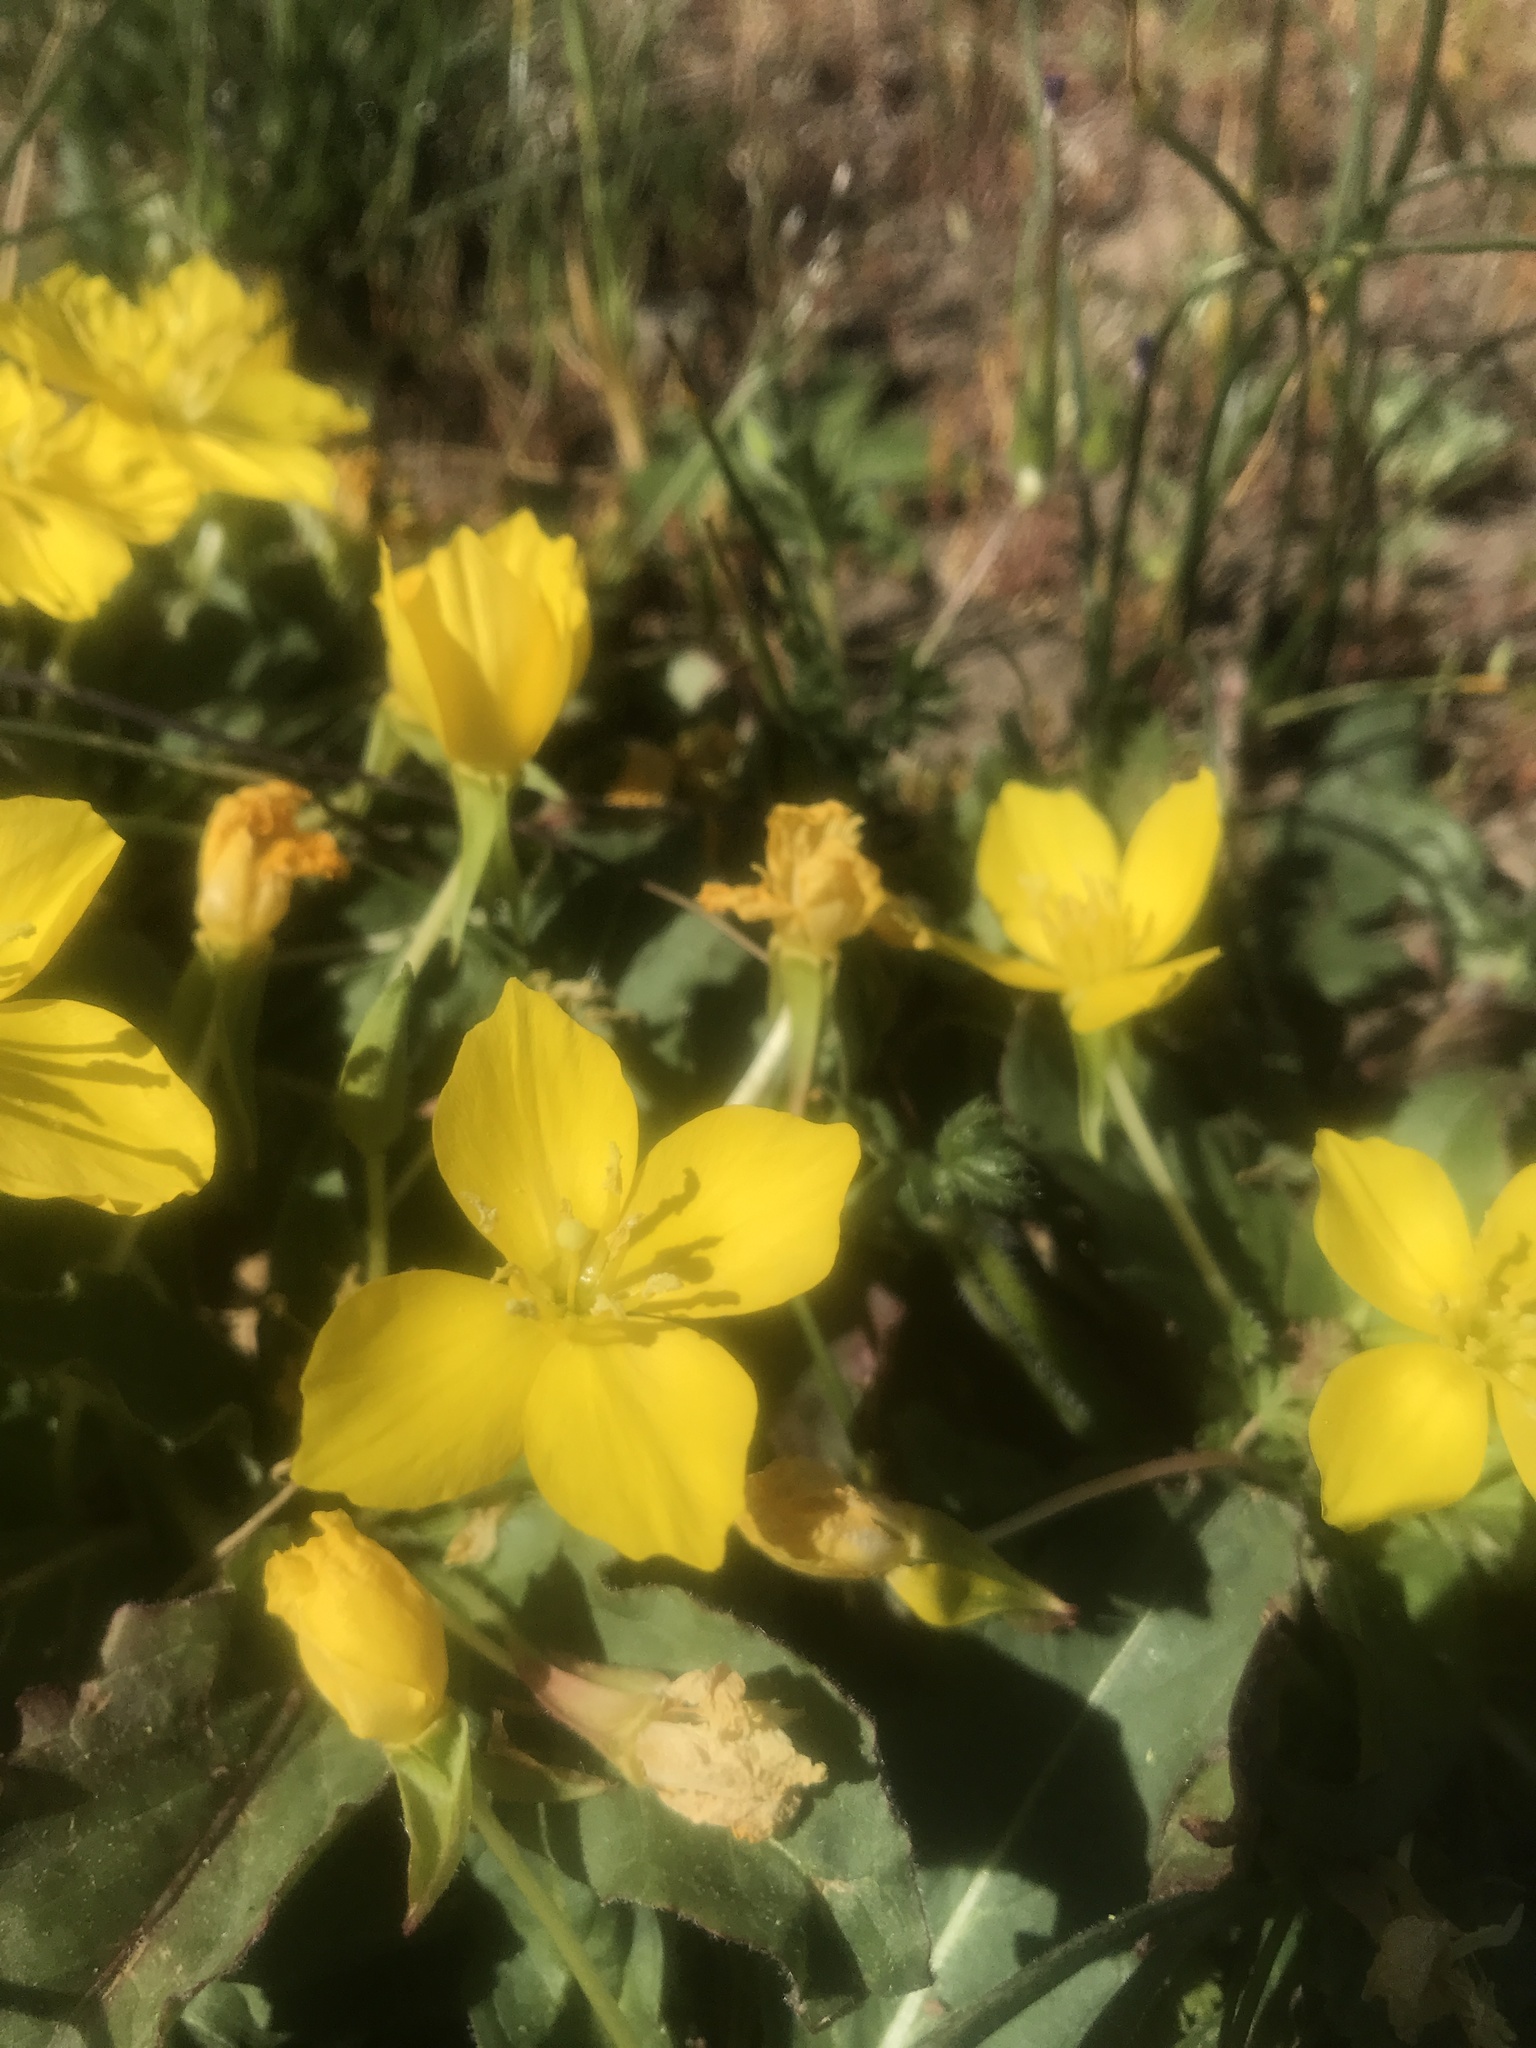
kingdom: Plantae
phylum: Tracheophyta
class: Magnoliopsida
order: Myrtales
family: Onagraceae
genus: Taraxia
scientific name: Taraxia ovata
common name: Goldeneggs
